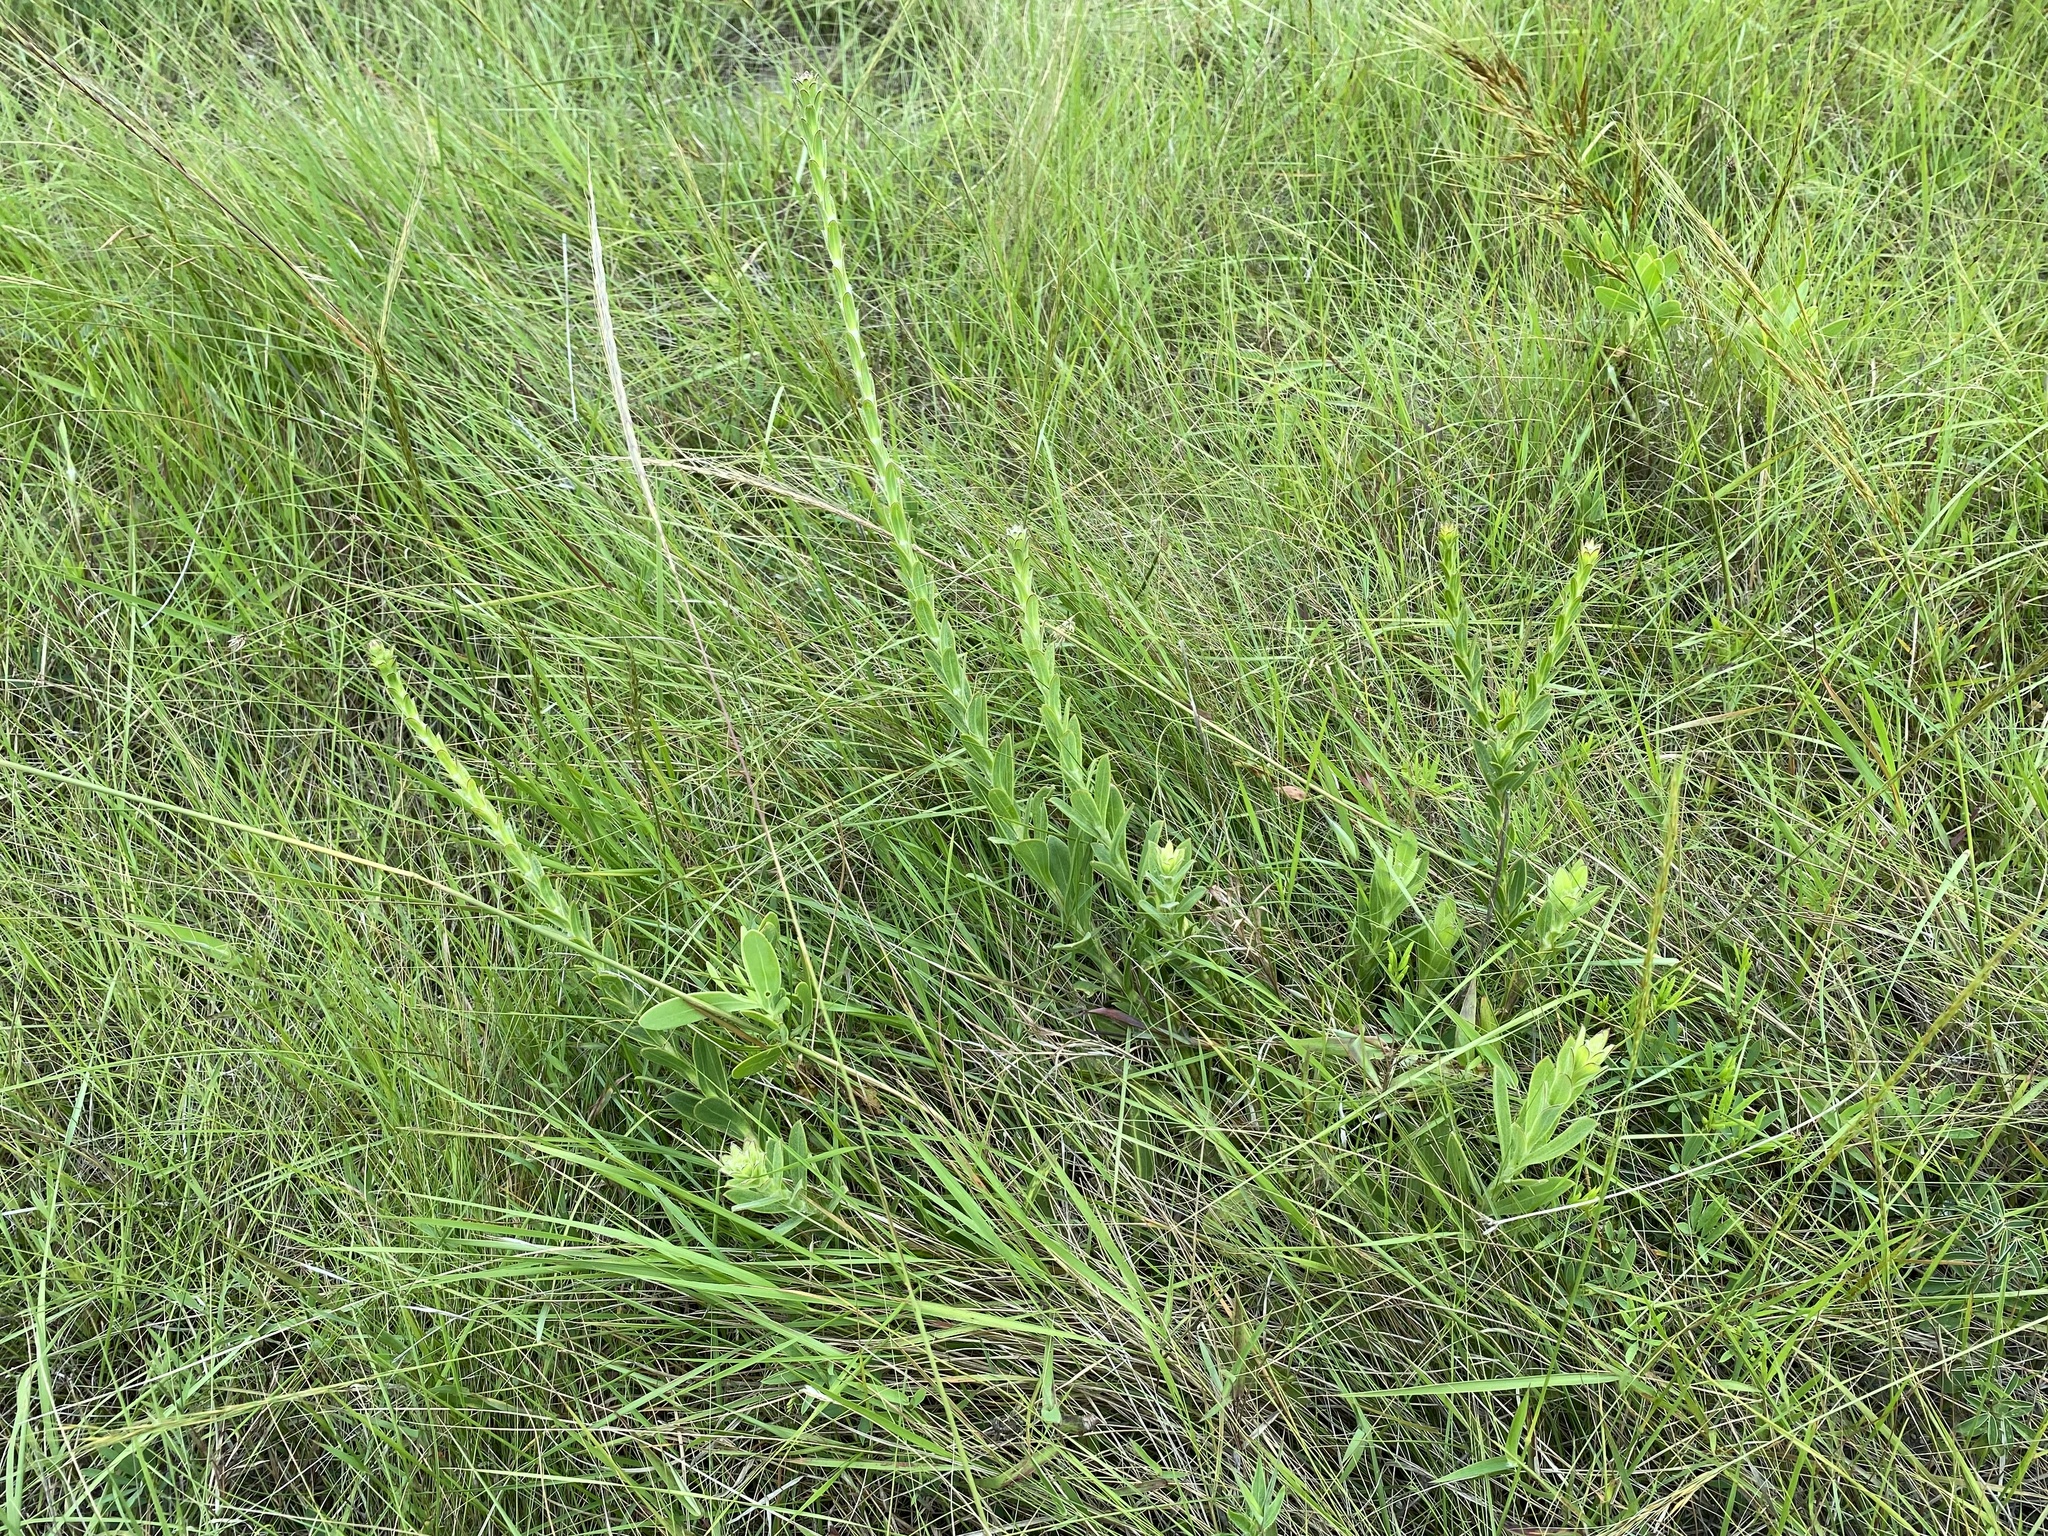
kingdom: Plantae
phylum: Tracheophyta
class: Magnoliopsida
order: Malvales
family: Thymelaeaceae
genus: Gnidia
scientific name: Gnidia anthylloides
